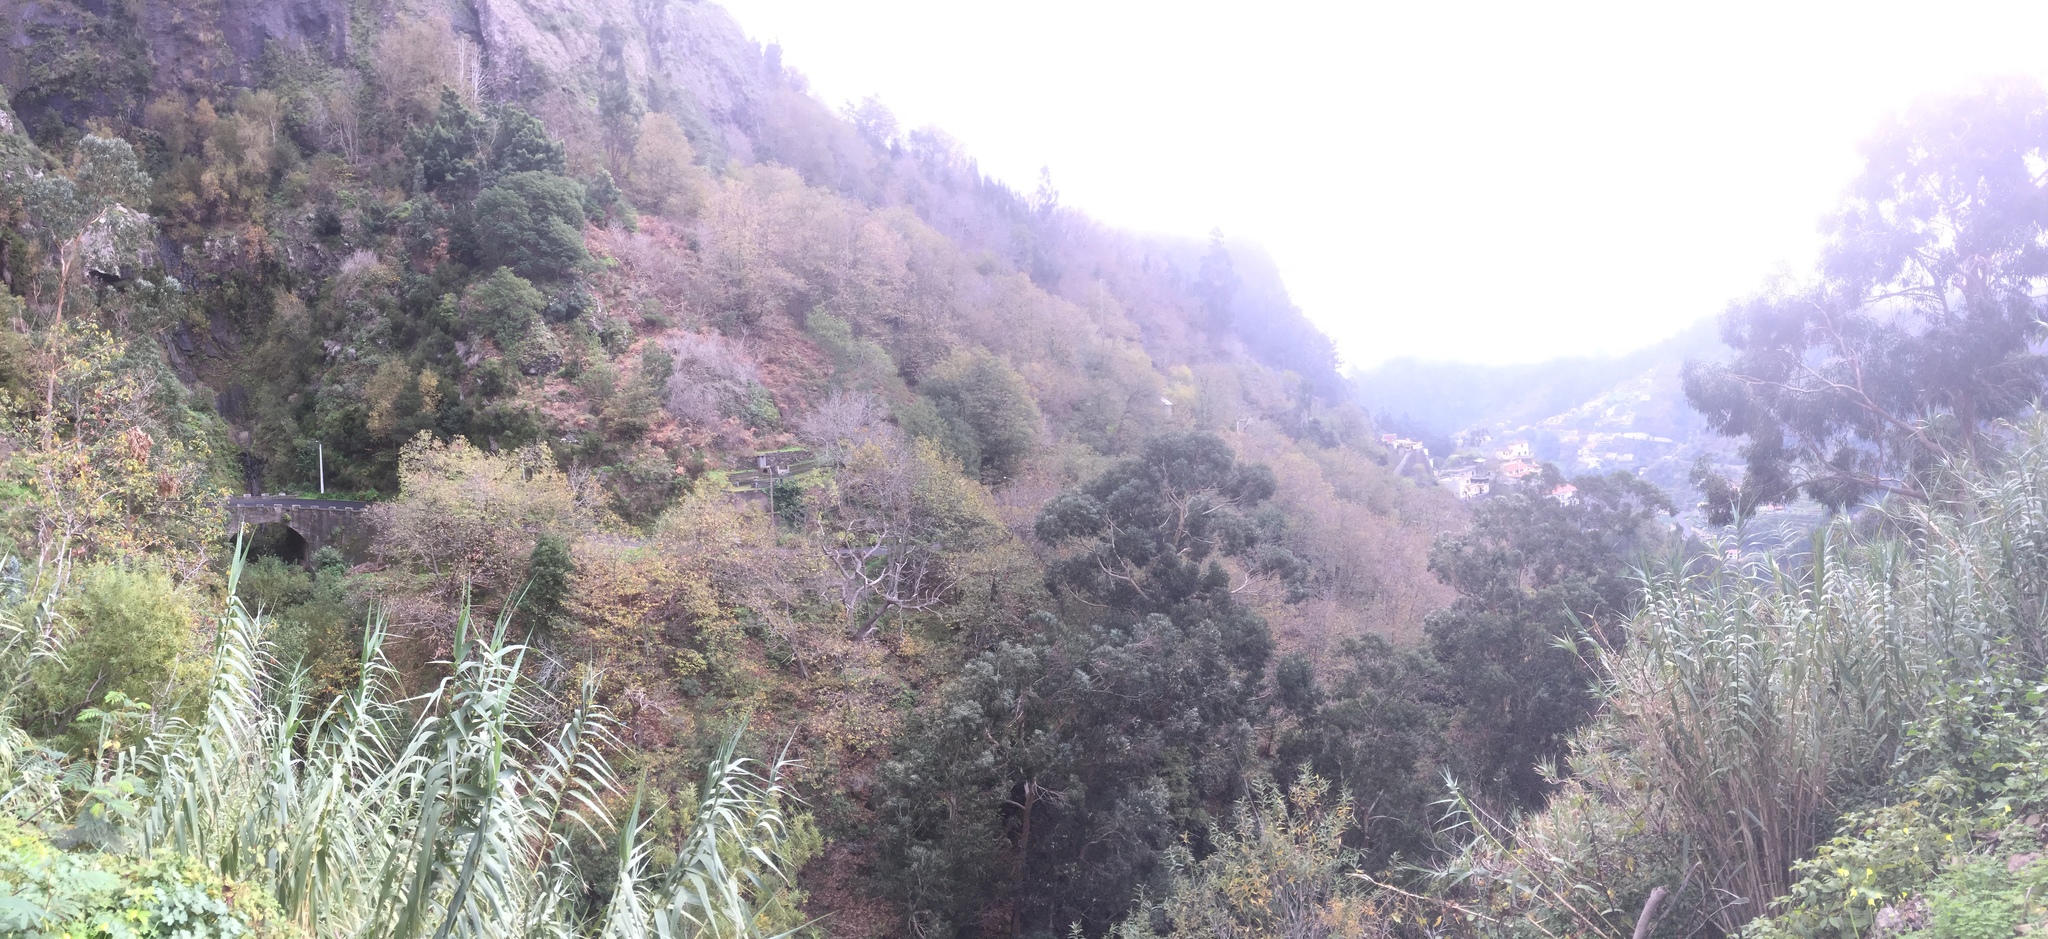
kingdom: Plantae
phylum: Tracheophyta
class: Liliopsida
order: Poales
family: Poaceae
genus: Arundo
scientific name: Arundo donax
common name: Giant reed
